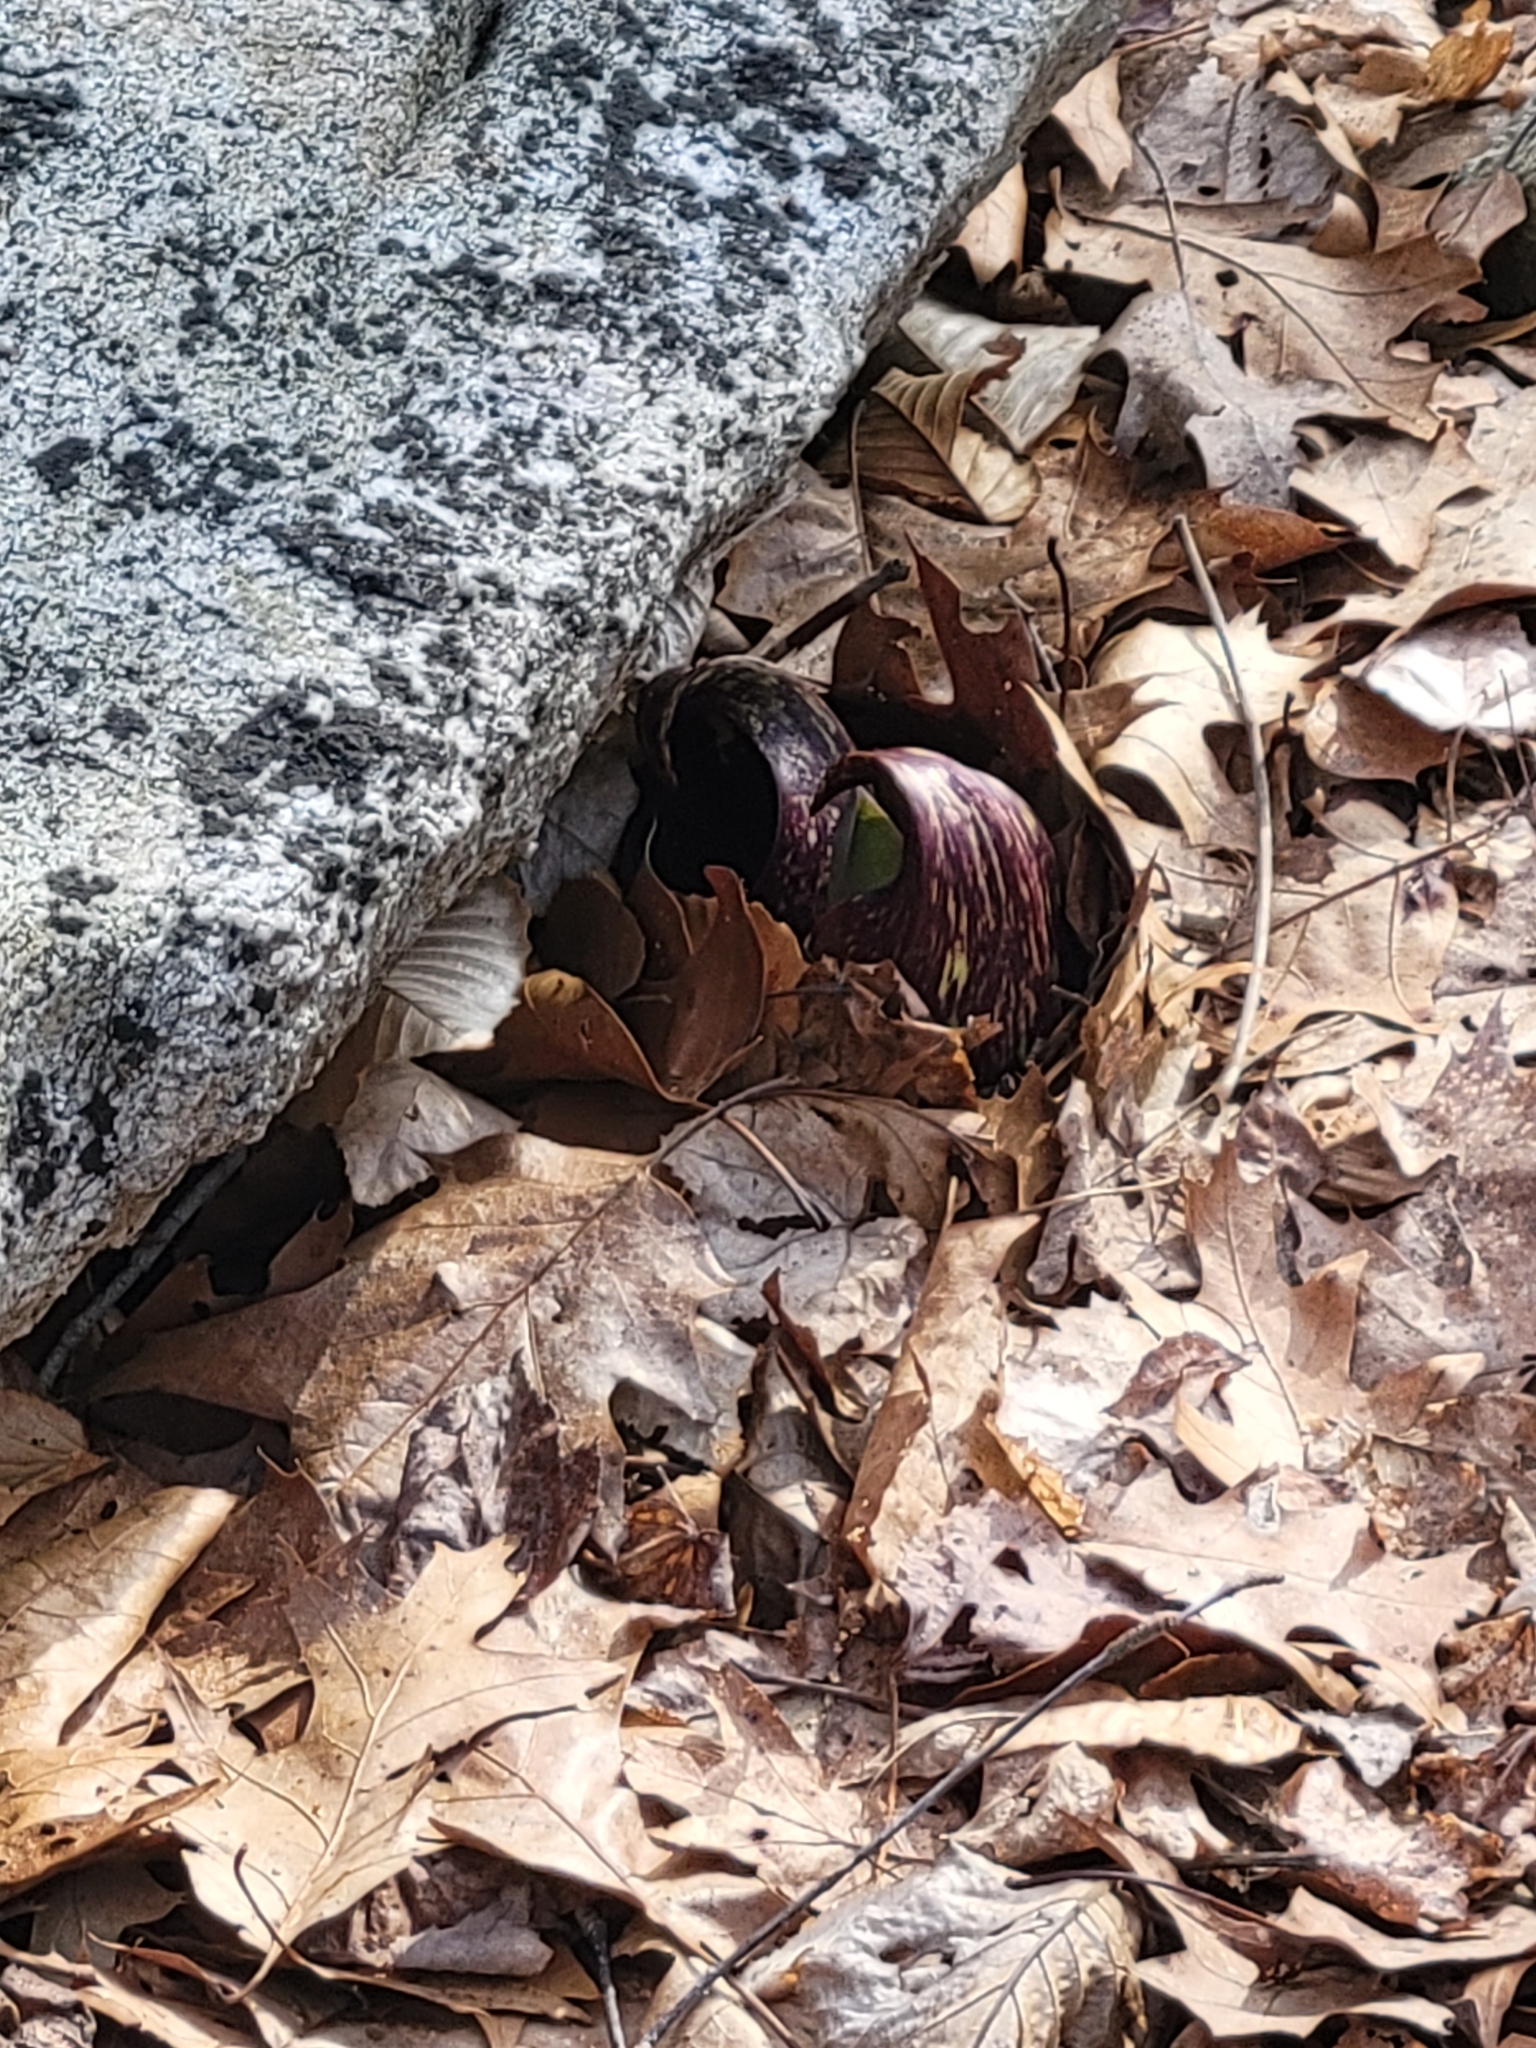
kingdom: Plantae
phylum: Tracheophyta
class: Liliopsida
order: Alismatales
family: Araceae
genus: Symplocarpus
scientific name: Symplocarpus foetidus
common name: Eastern skunk cabbage
